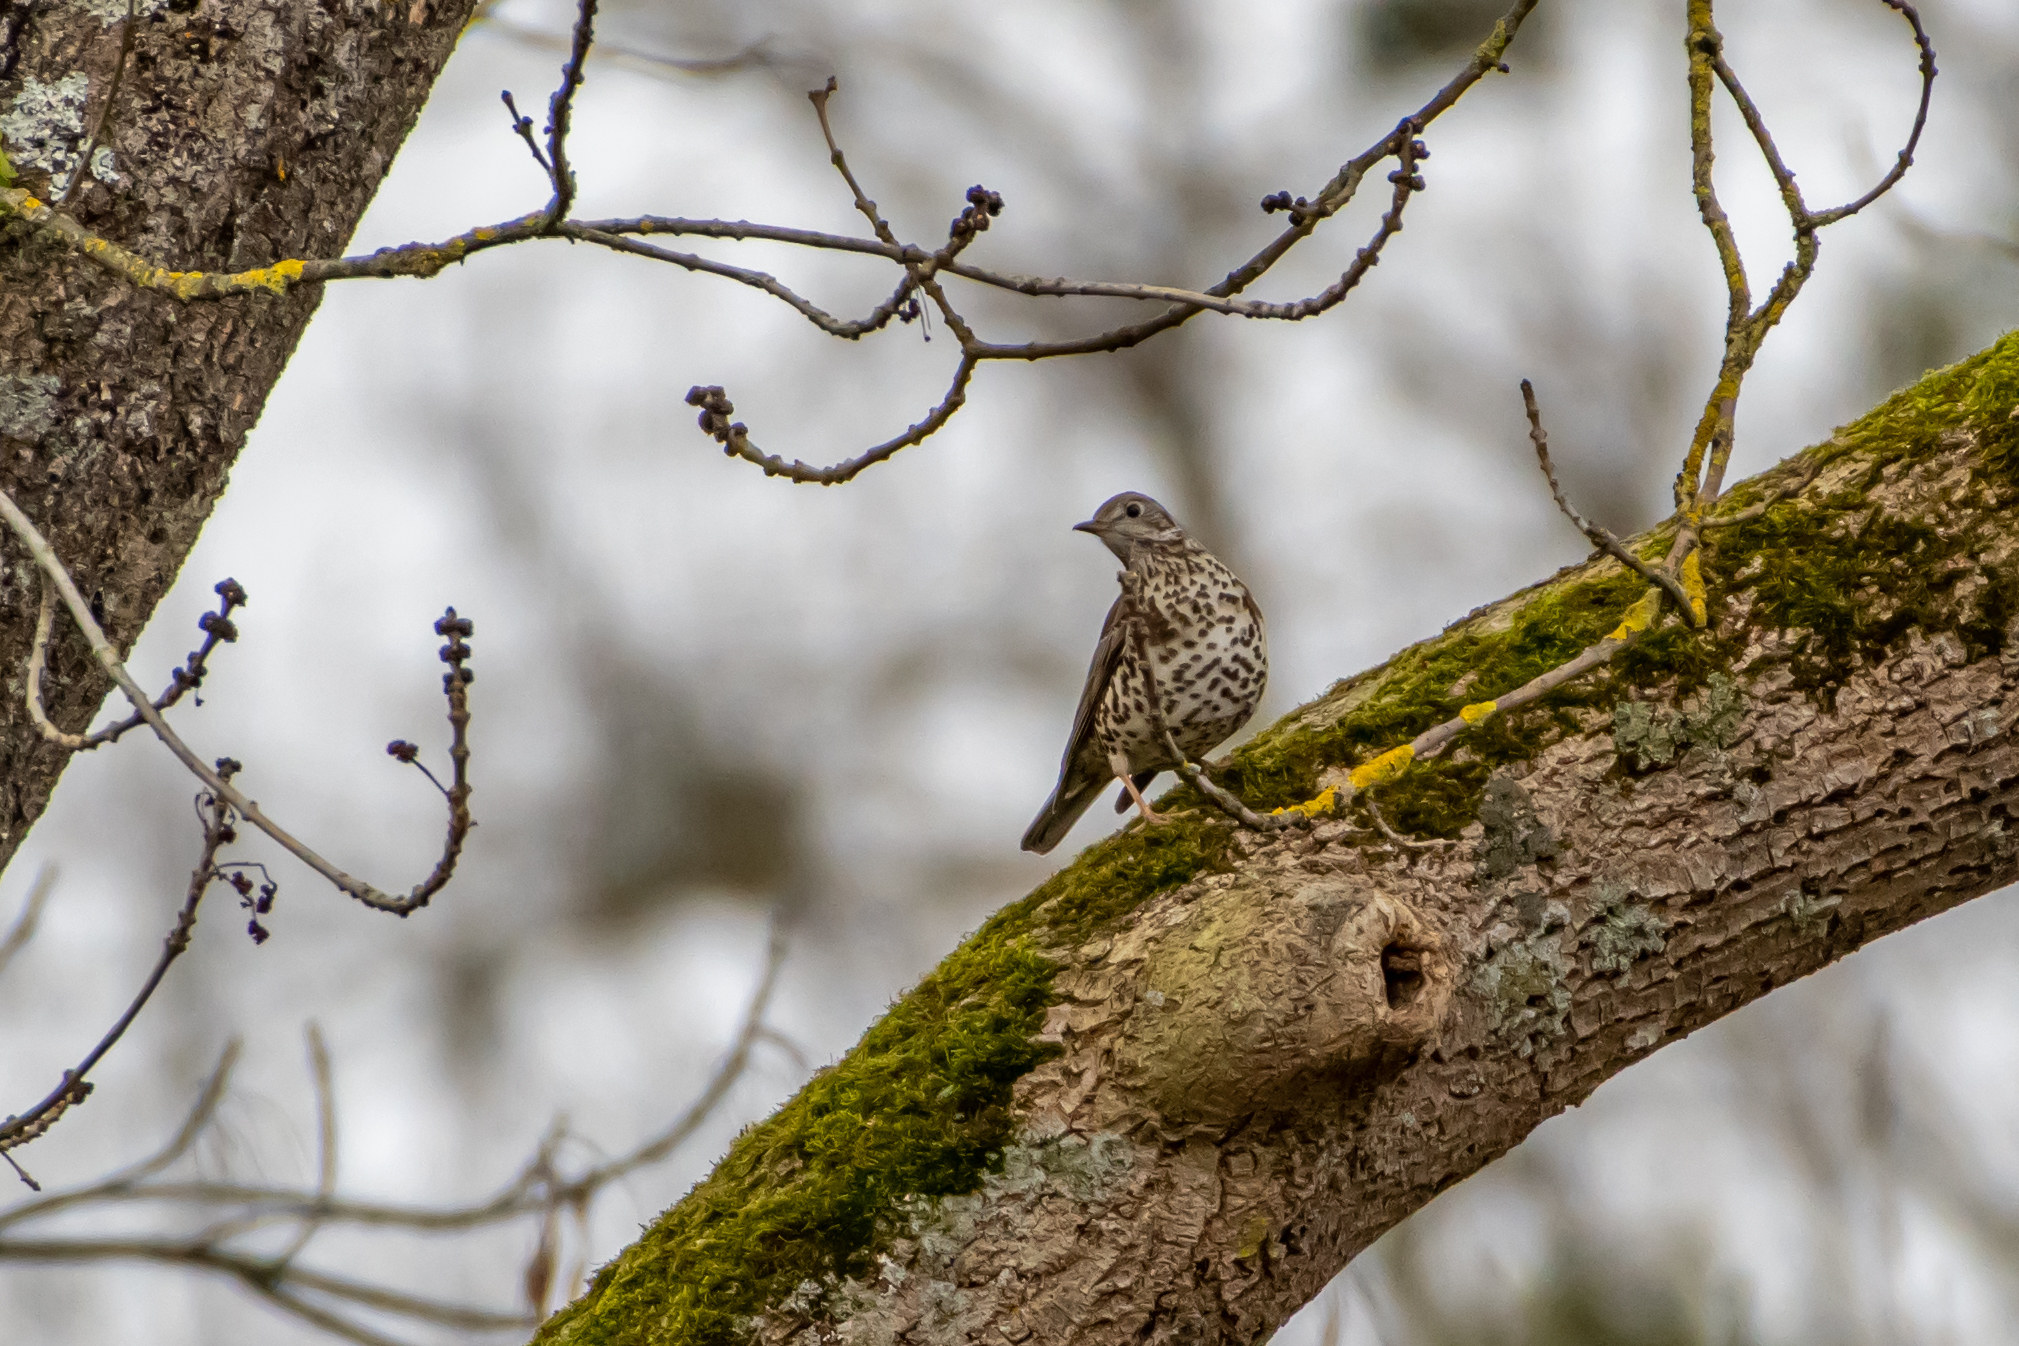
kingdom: Animalia
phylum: Chordata
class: Aves
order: Passeriformes
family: Turdidae
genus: Turdus
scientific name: Turdus viscivorus
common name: Mistle thrush
